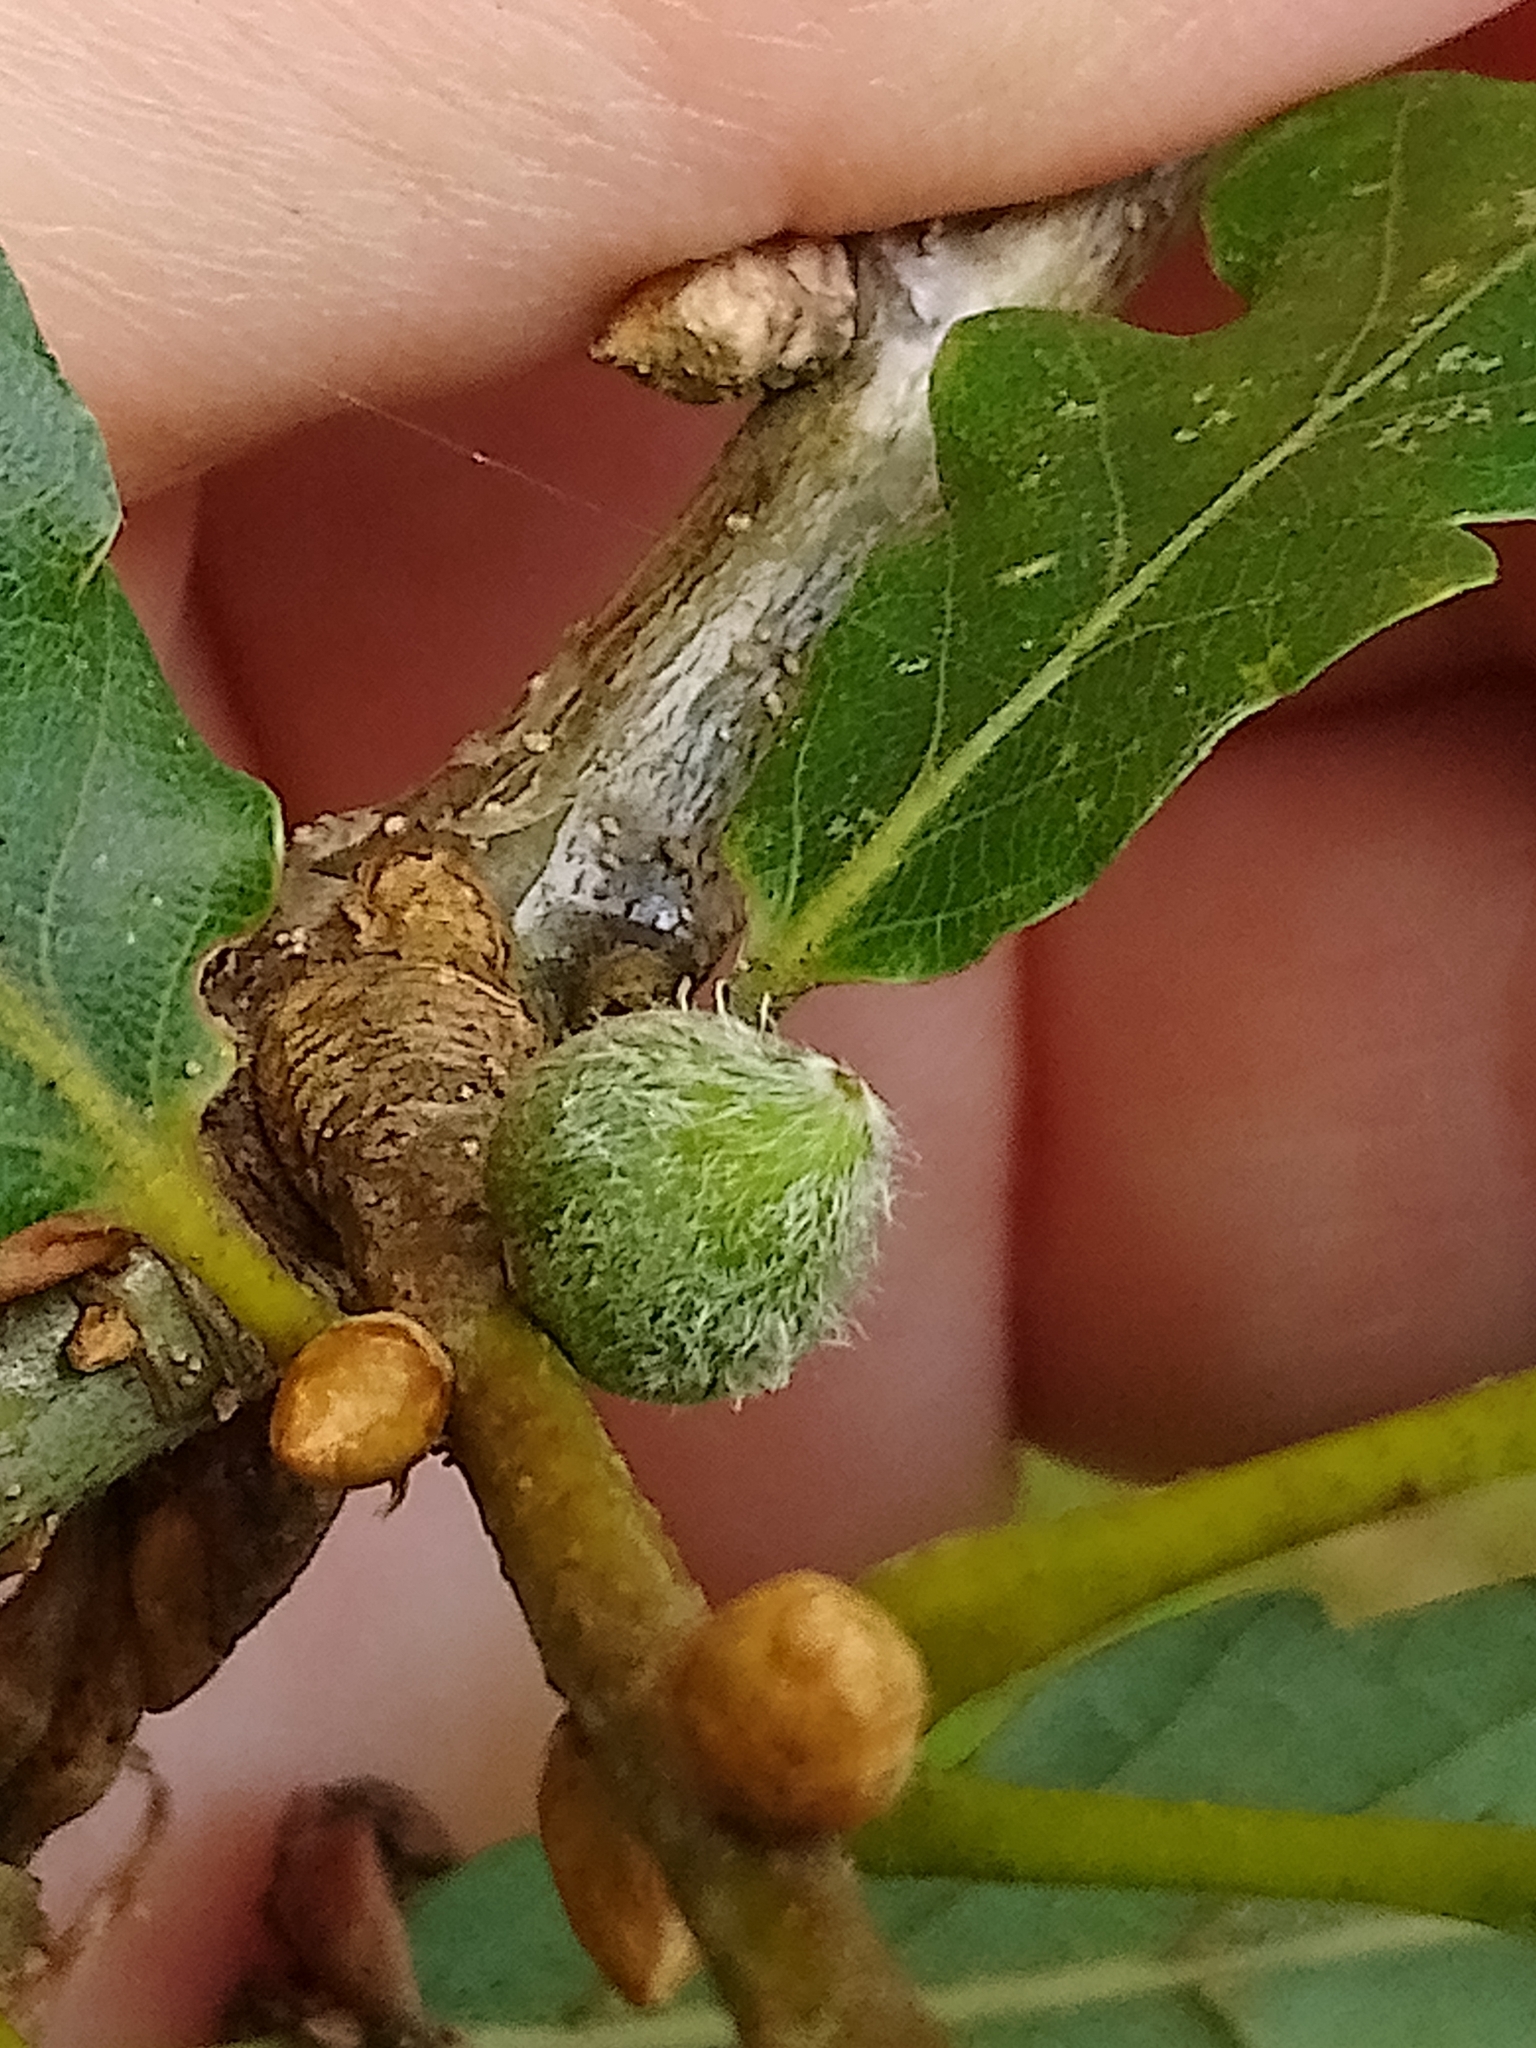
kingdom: Animalia
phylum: Arthropoda
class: Insecta
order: Hymenoptera
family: Cynipidae
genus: Andricus
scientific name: Andricus glandulae
